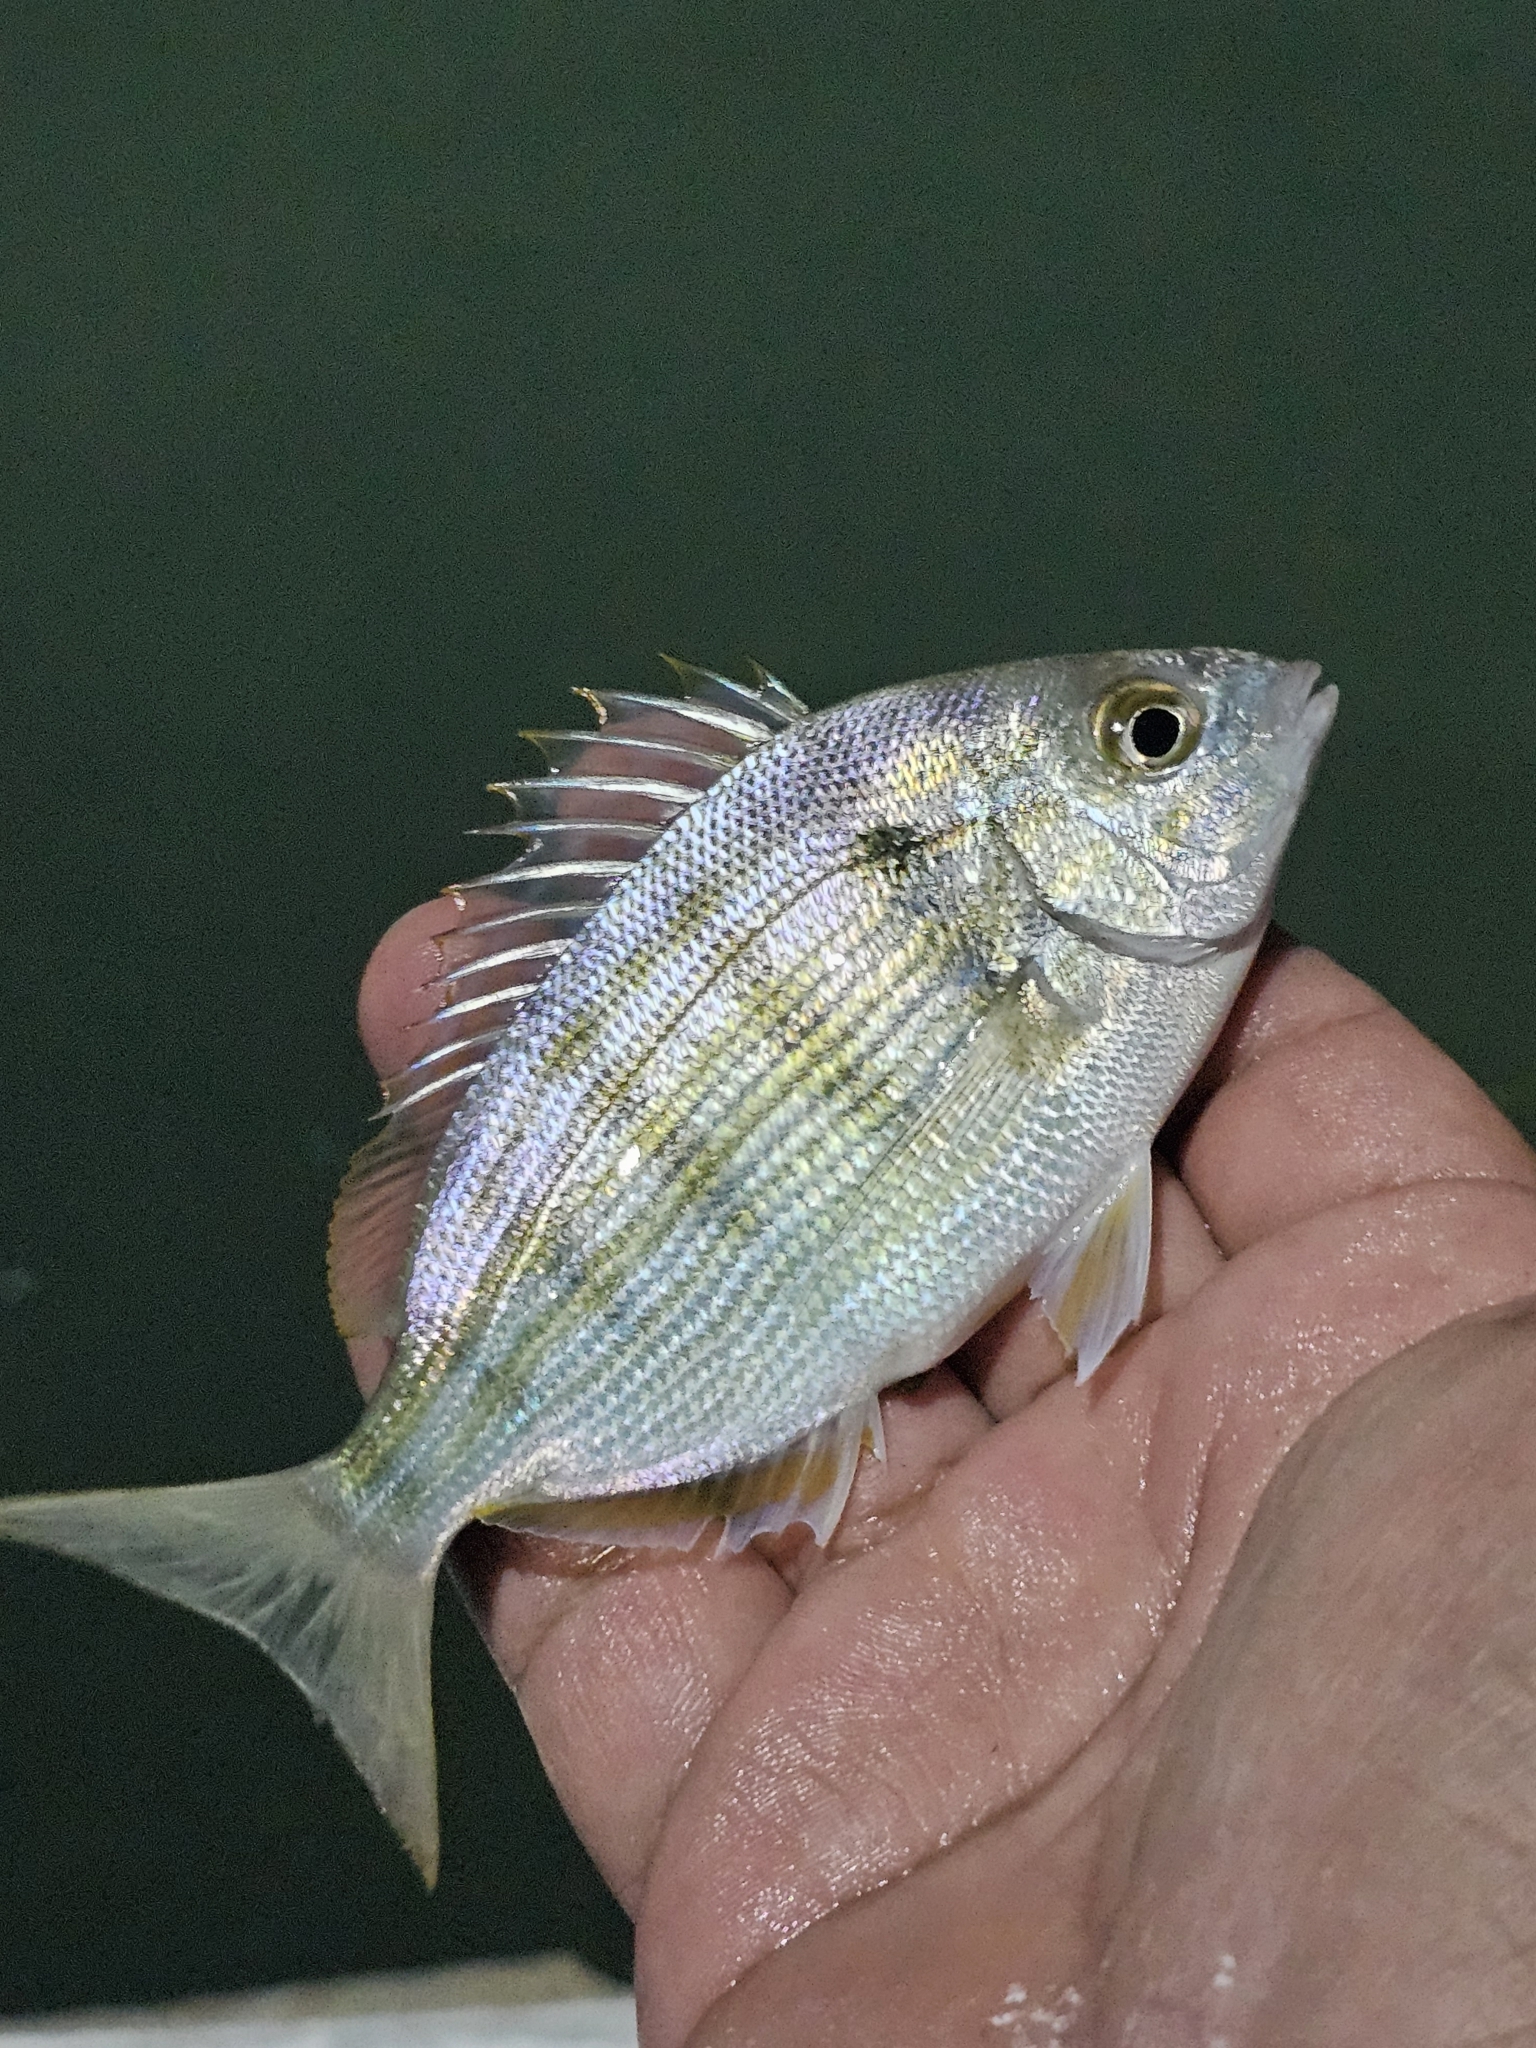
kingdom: Animalia
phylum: Chordata
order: Perciformes
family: Sparidae
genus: Lagodon
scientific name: Lagodon rhomboides
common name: Pinfish
